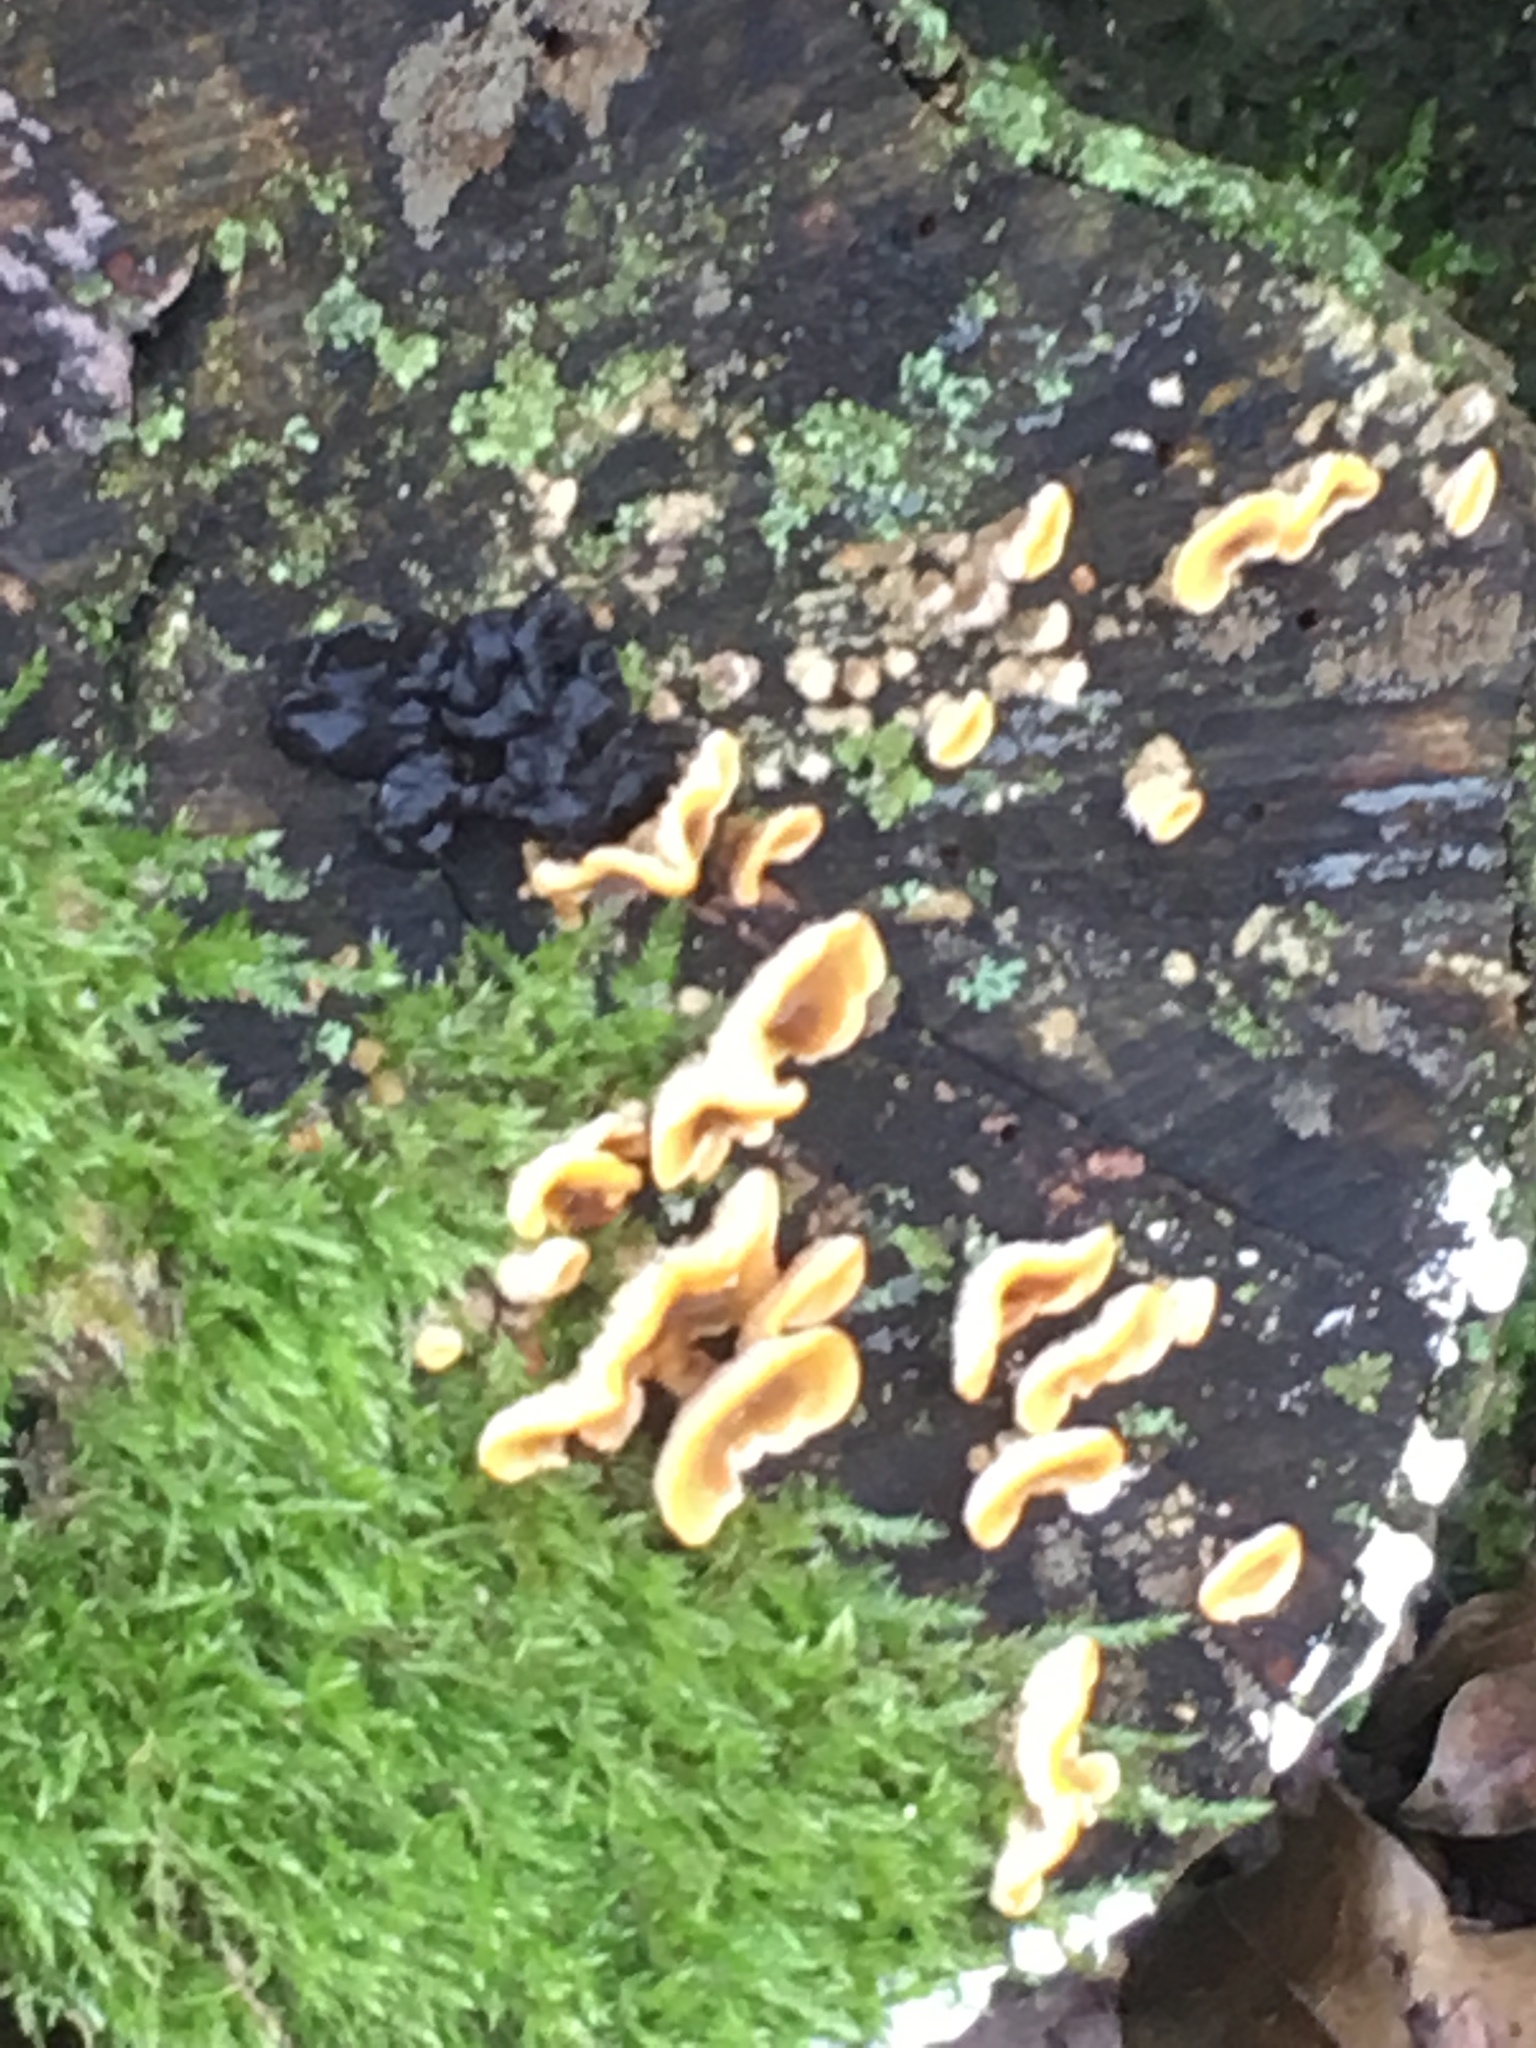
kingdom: Fungi
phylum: Basidiomycota
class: Agaricomycetes
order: Russulales
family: Stereaceae
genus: Stereum
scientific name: Stereum hirsutum
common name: Hairy curtain crust
